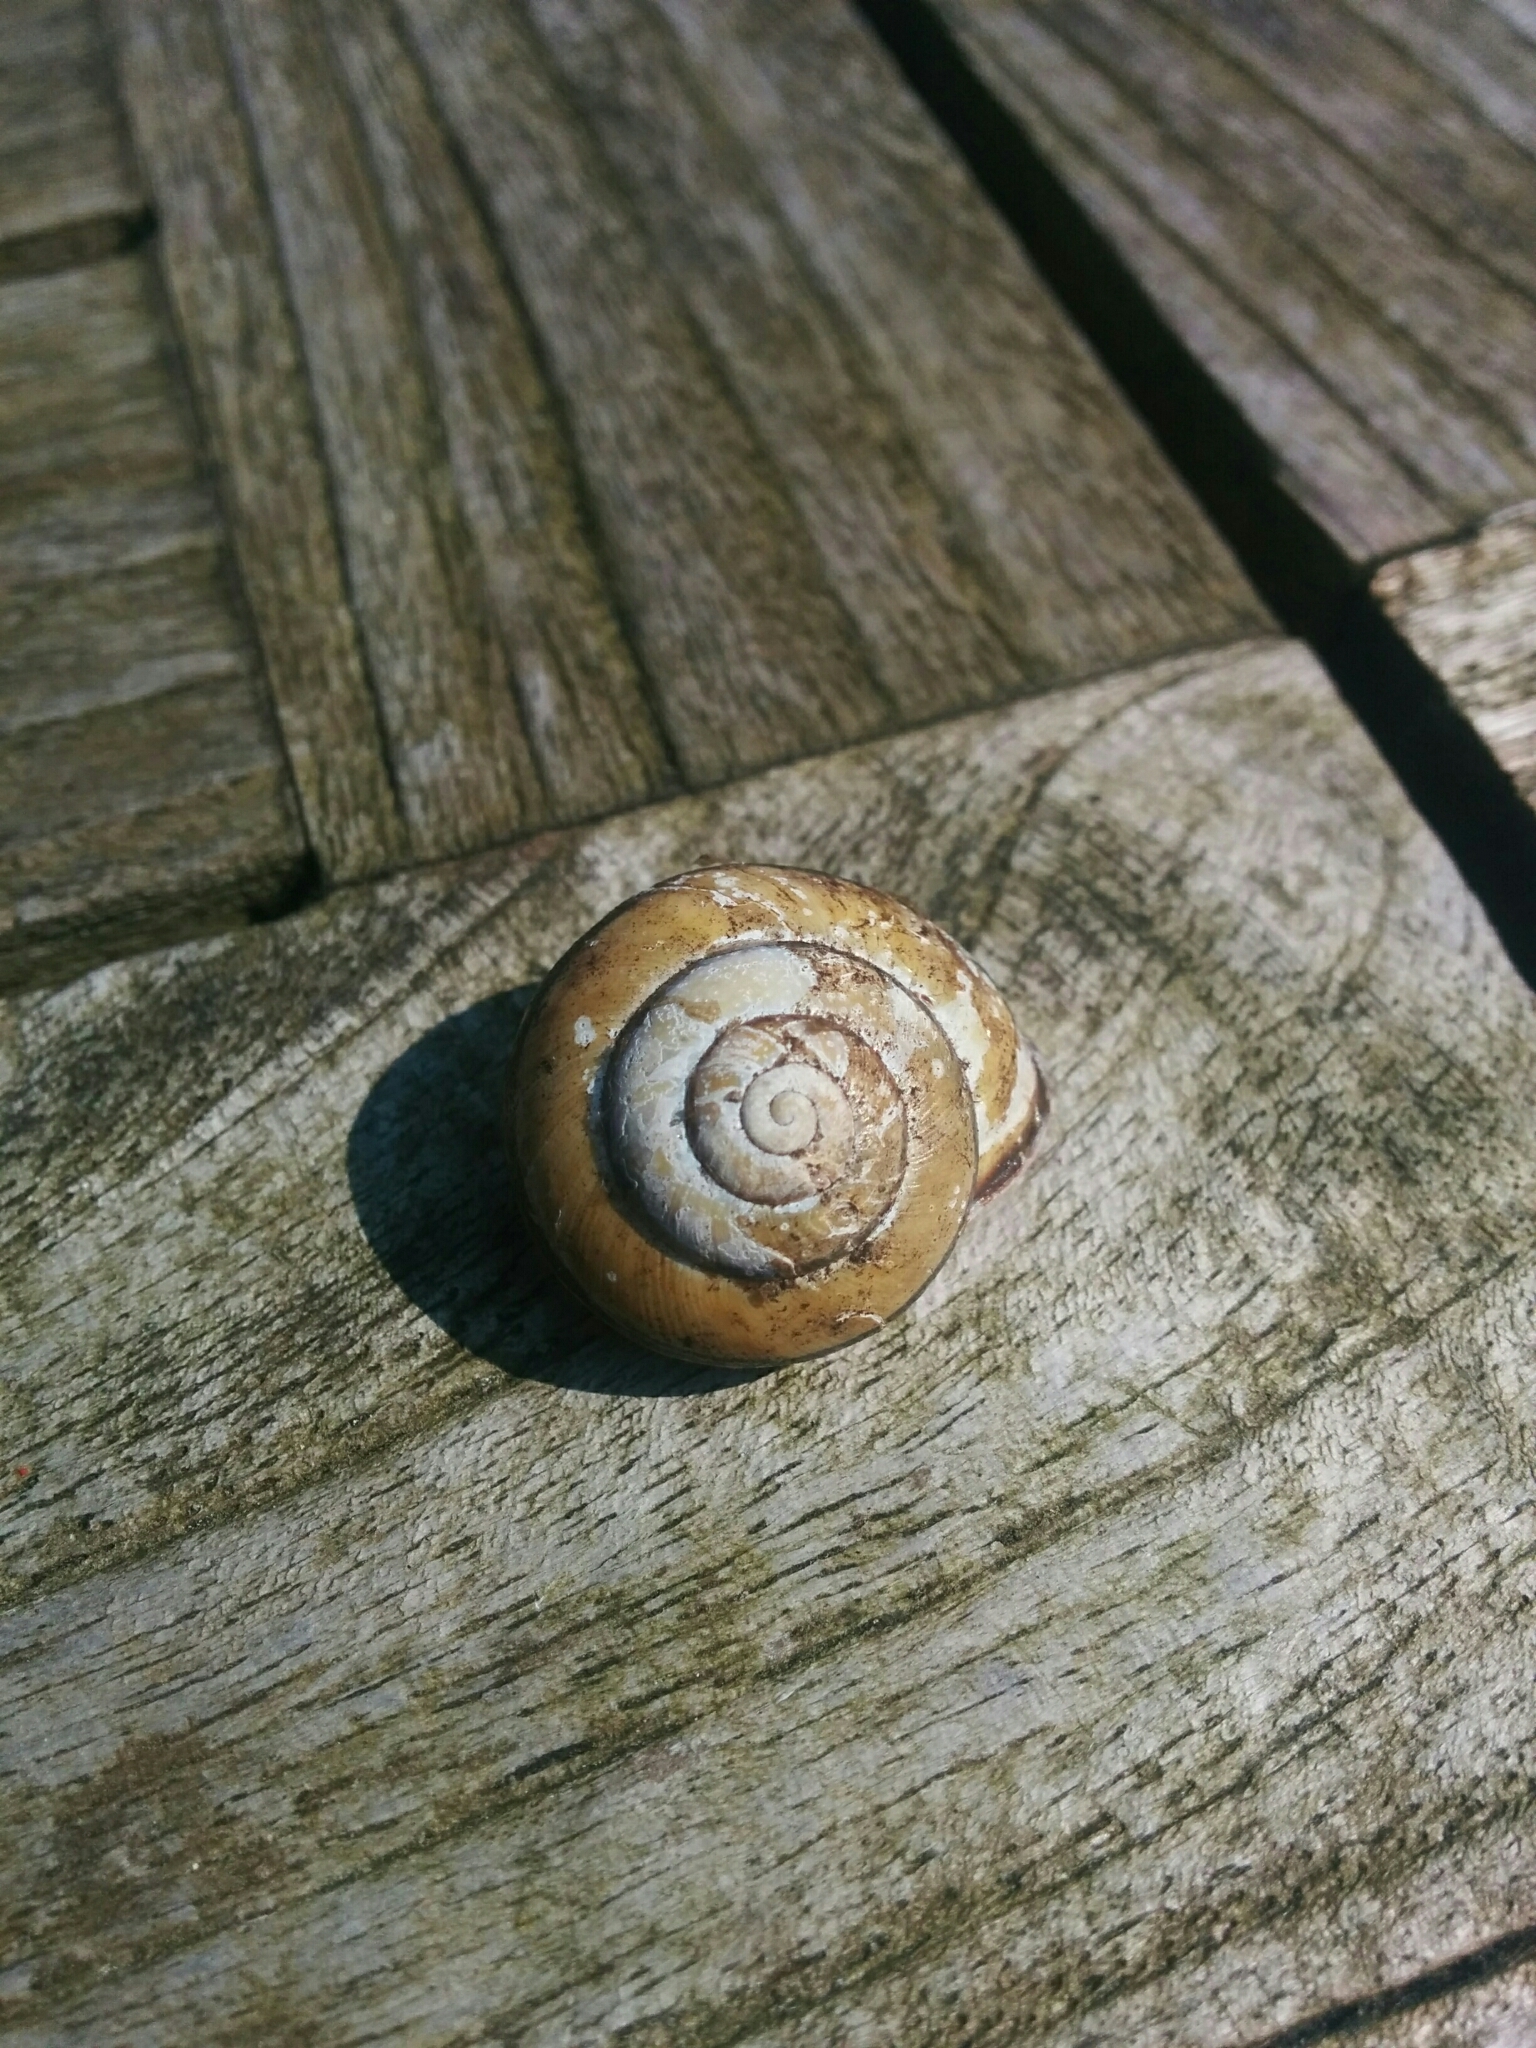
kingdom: Animalia
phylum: Mollusca
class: Gastropoda
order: Stylommatophora
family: Helicidae
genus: Cepaea
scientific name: Cepaea nemoralis
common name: Grovesnail
